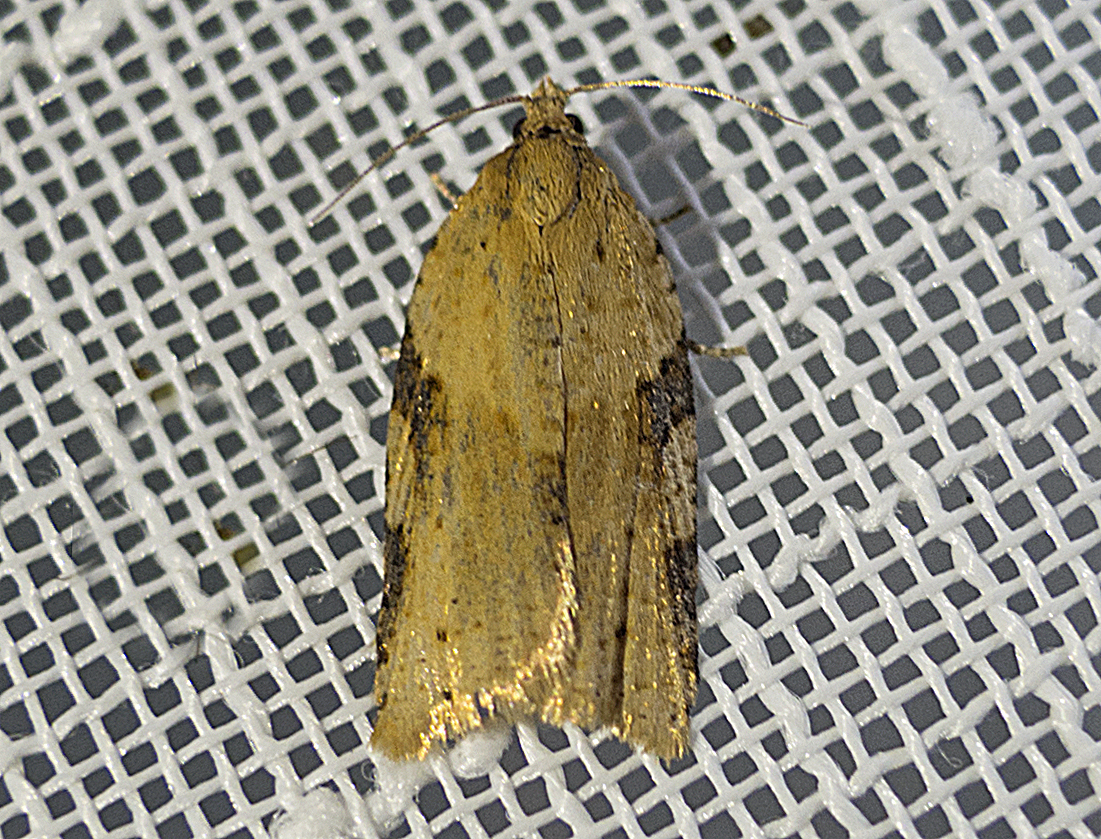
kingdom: Animalia
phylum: Arthropoda
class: Insecta
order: Lepidoptera
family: Tortricidae
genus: Clepsis
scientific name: Clepsis spectrana
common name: Cyclamen tortrix
